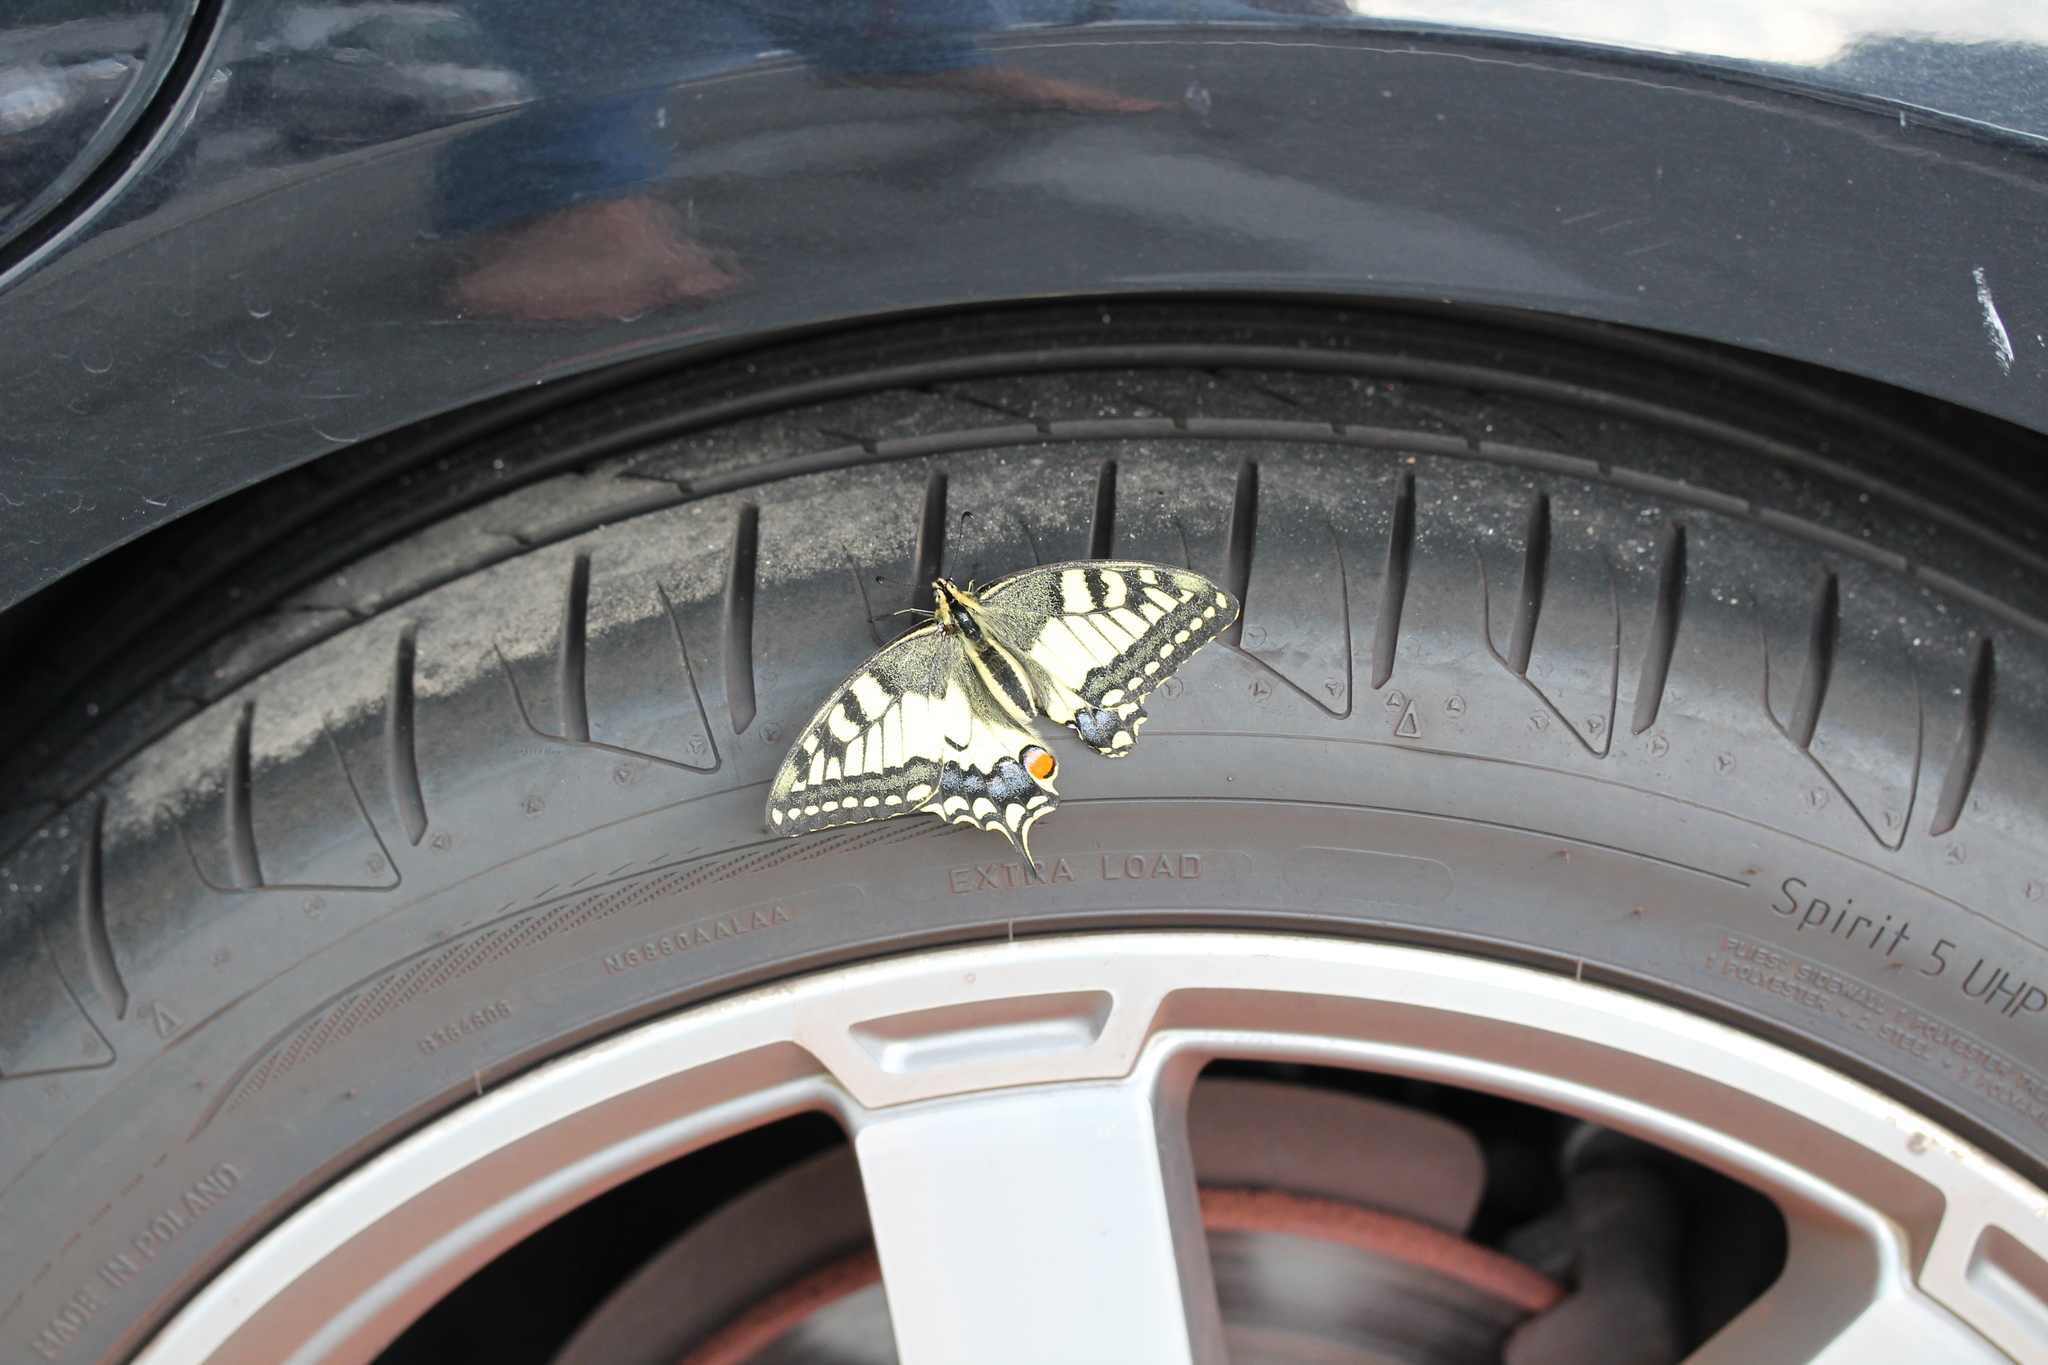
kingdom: Animalia
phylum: Arthropoda
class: Insecta
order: Lepidoptera
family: Papilionidae
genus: Papilio
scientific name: Papilio machaon
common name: Swallowtail
